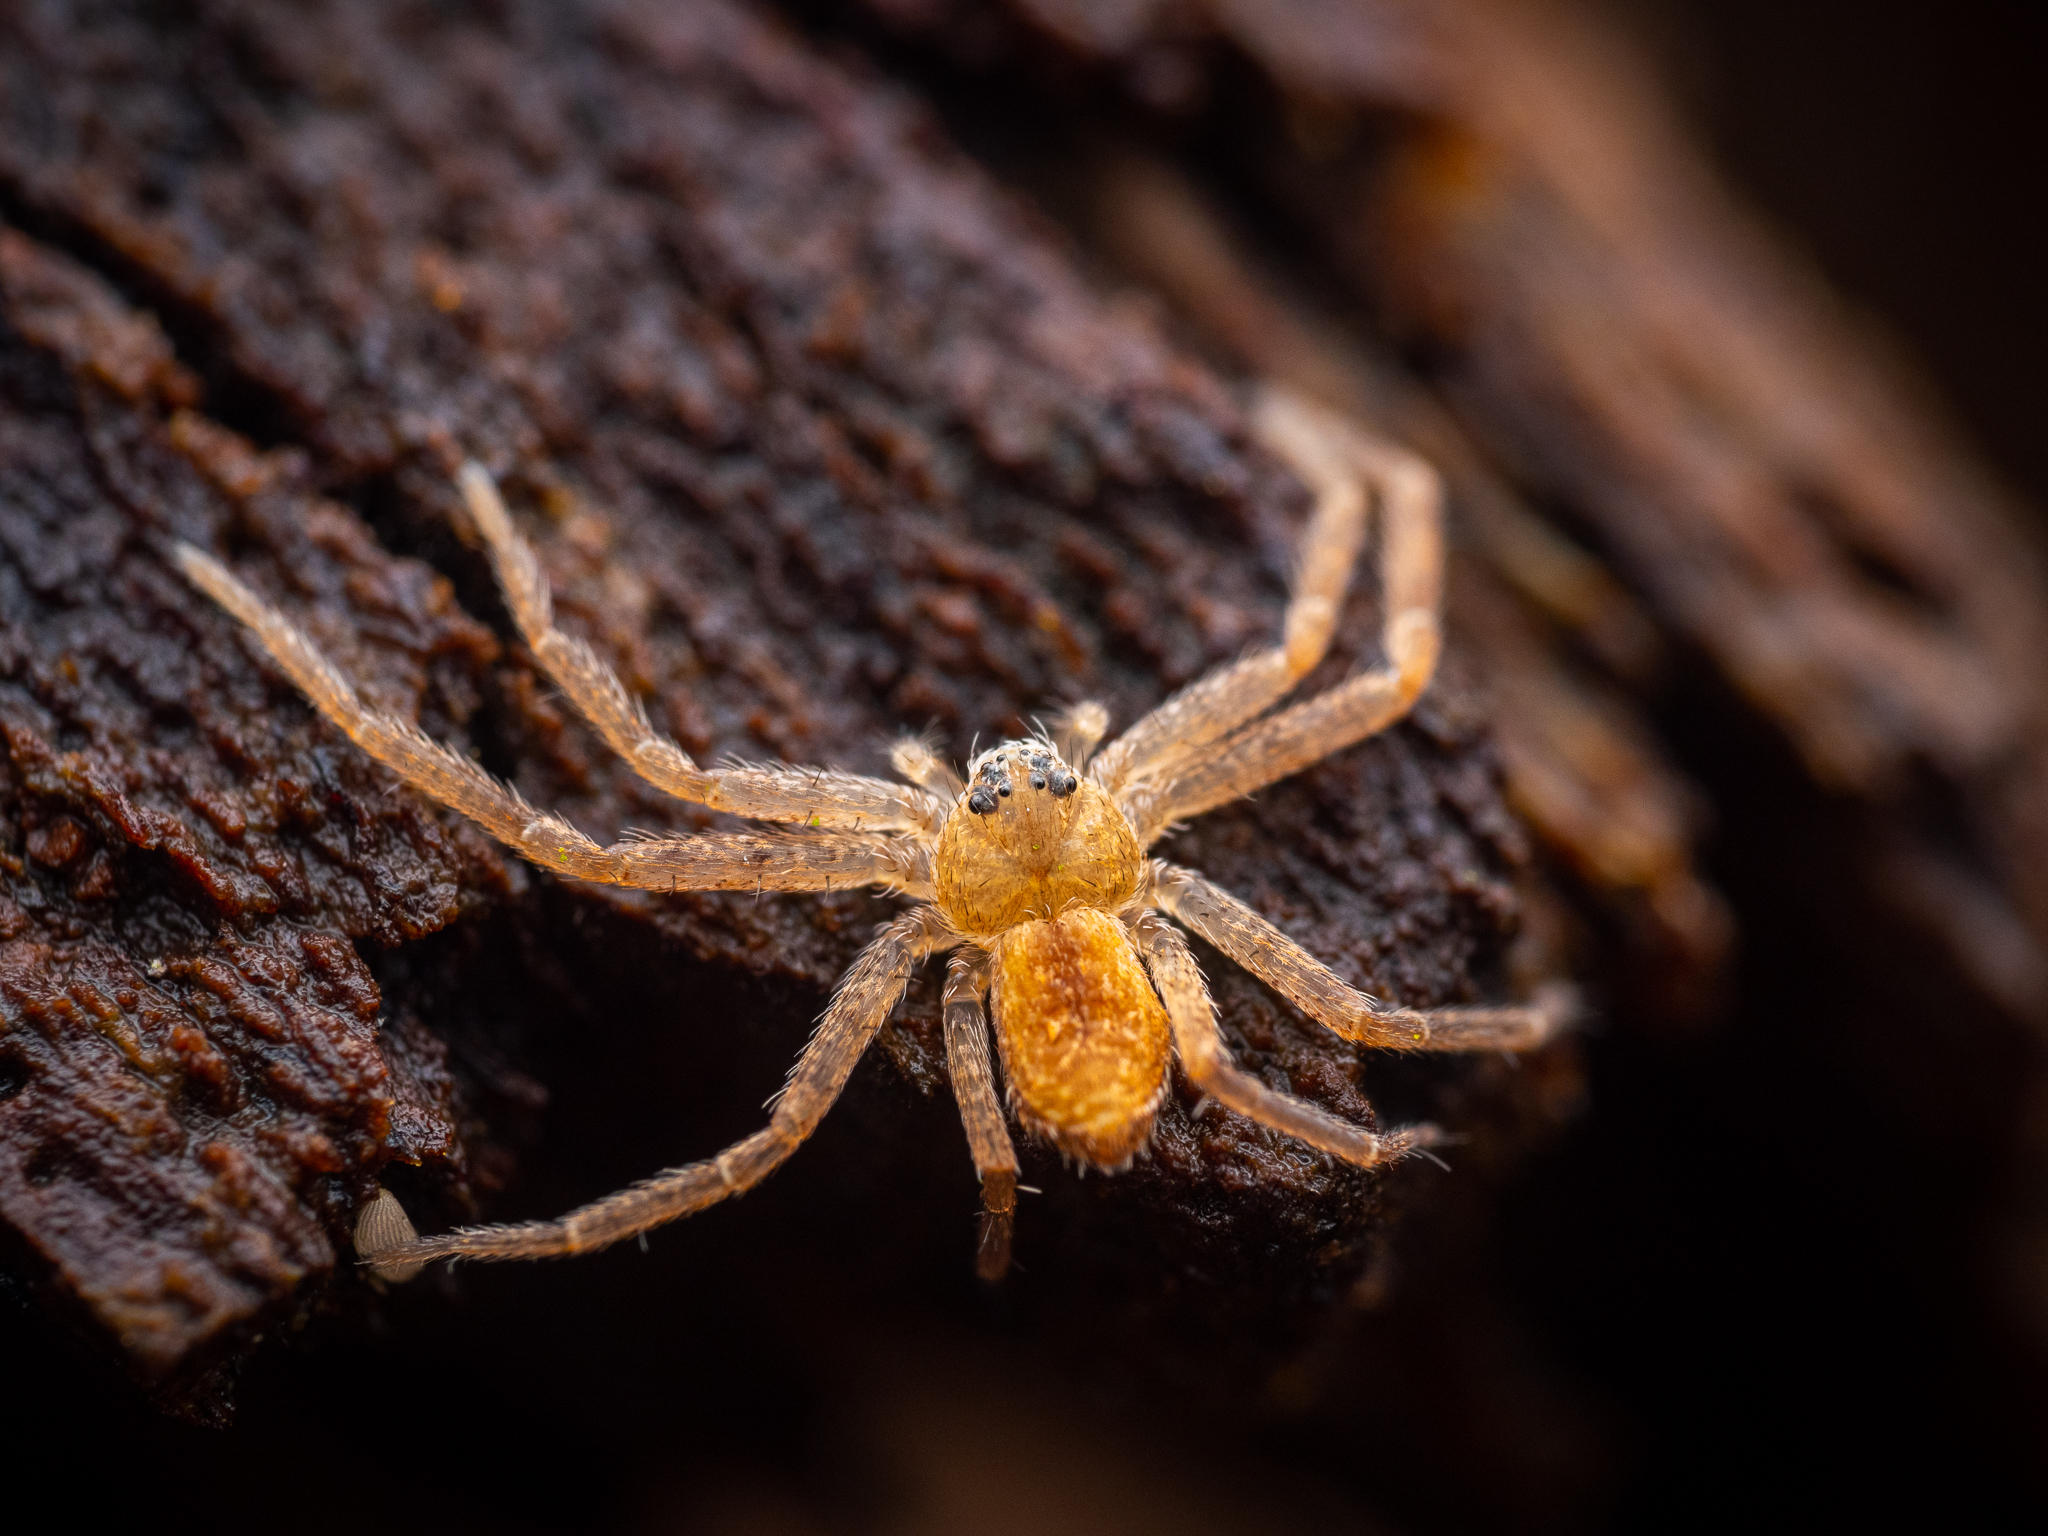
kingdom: Animalia
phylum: Arthropoda
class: Arachnida
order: Araneae
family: Philodromidae
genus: Philodromus
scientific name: Philodromus fuscomarginatus
